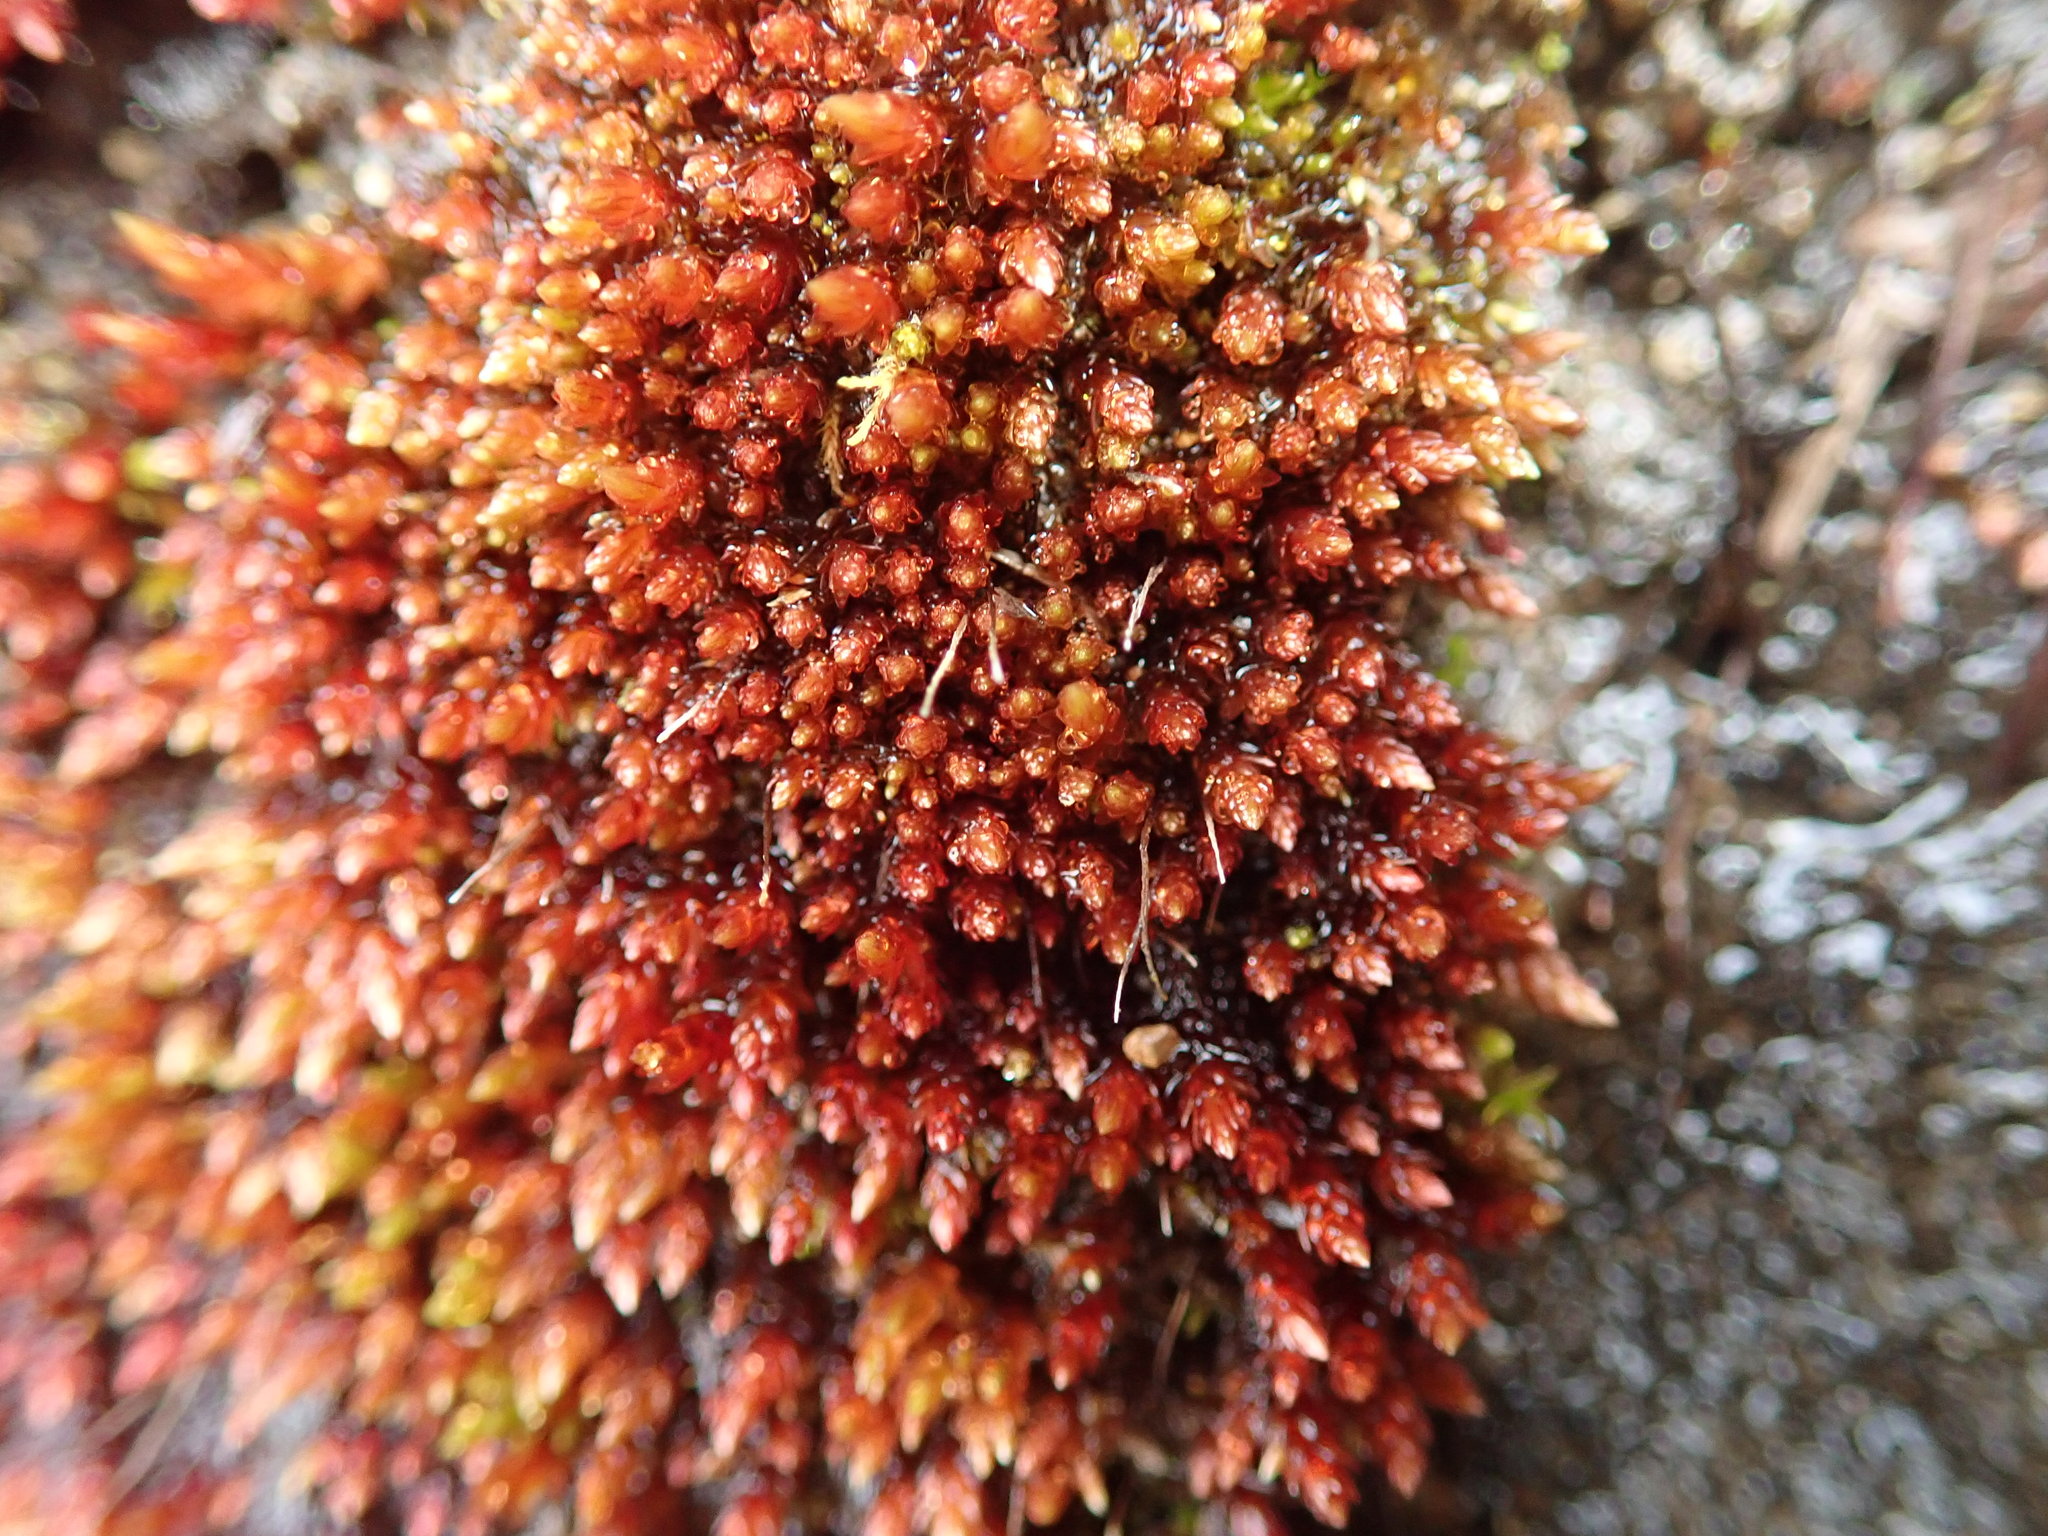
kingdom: Plantae
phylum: Bryophyta
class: Bryopsida
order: Bryales
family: Bryaceae
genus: Imbribryum
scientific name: Imbribryum miniatum
